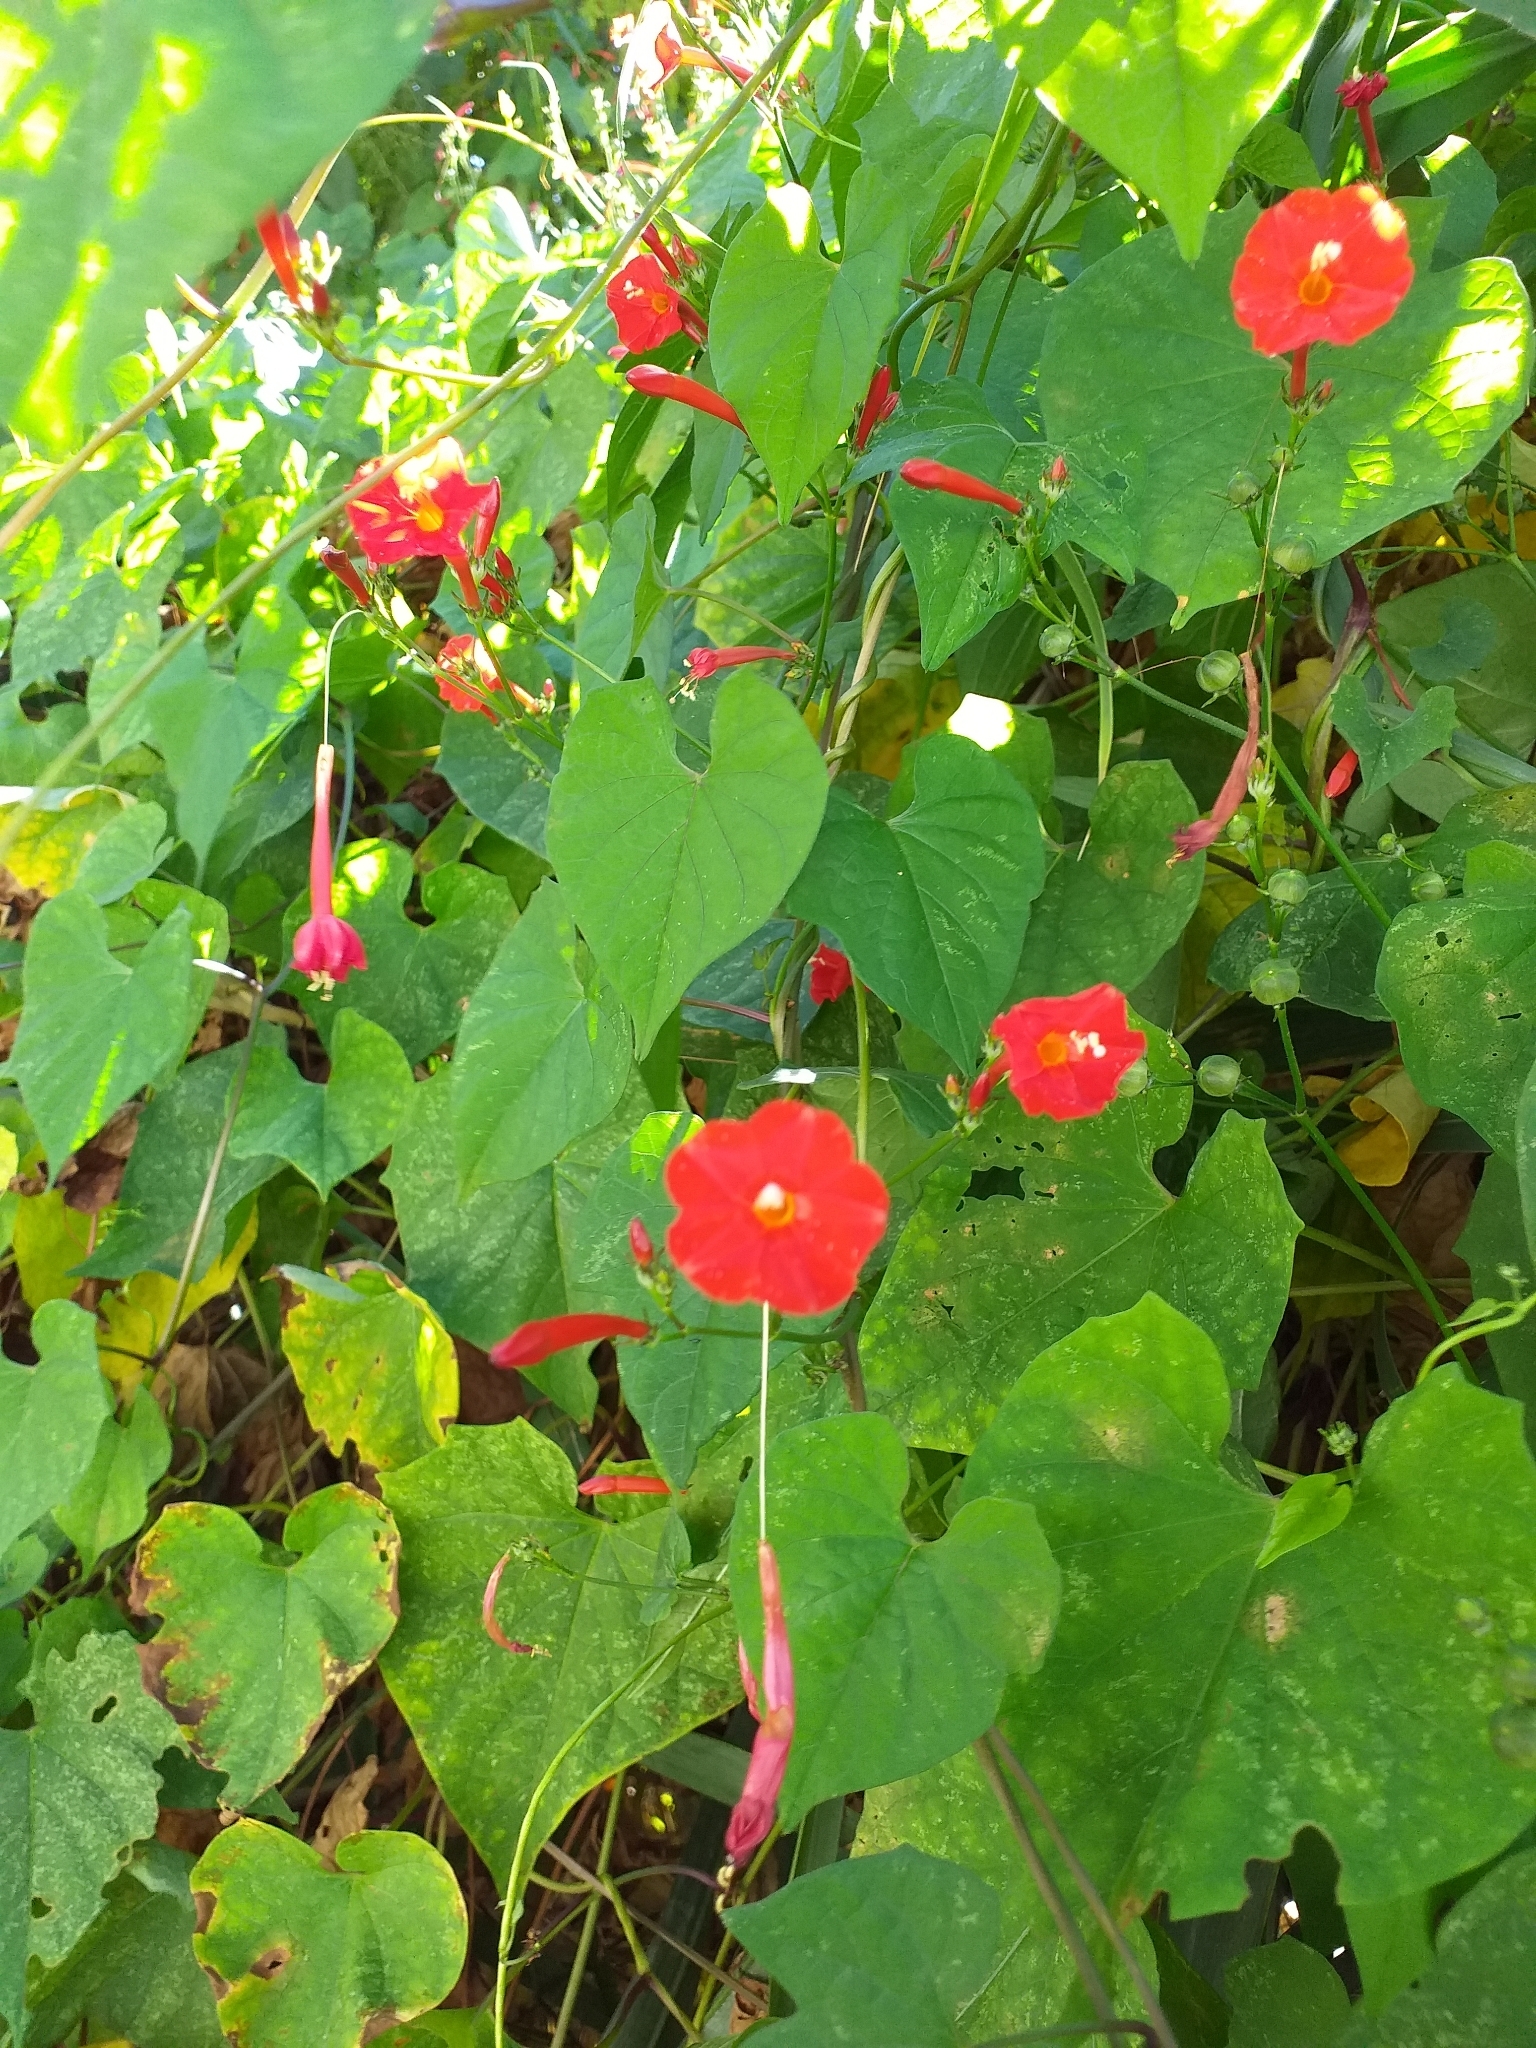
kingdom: Plantae
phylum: Tracheophyta
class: Magnoliopsida
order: Solanales
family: Convolvulaceae
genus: Ipomoea
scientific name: Ipomoea hederifolia
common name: Ivy-leaf morning-glory
